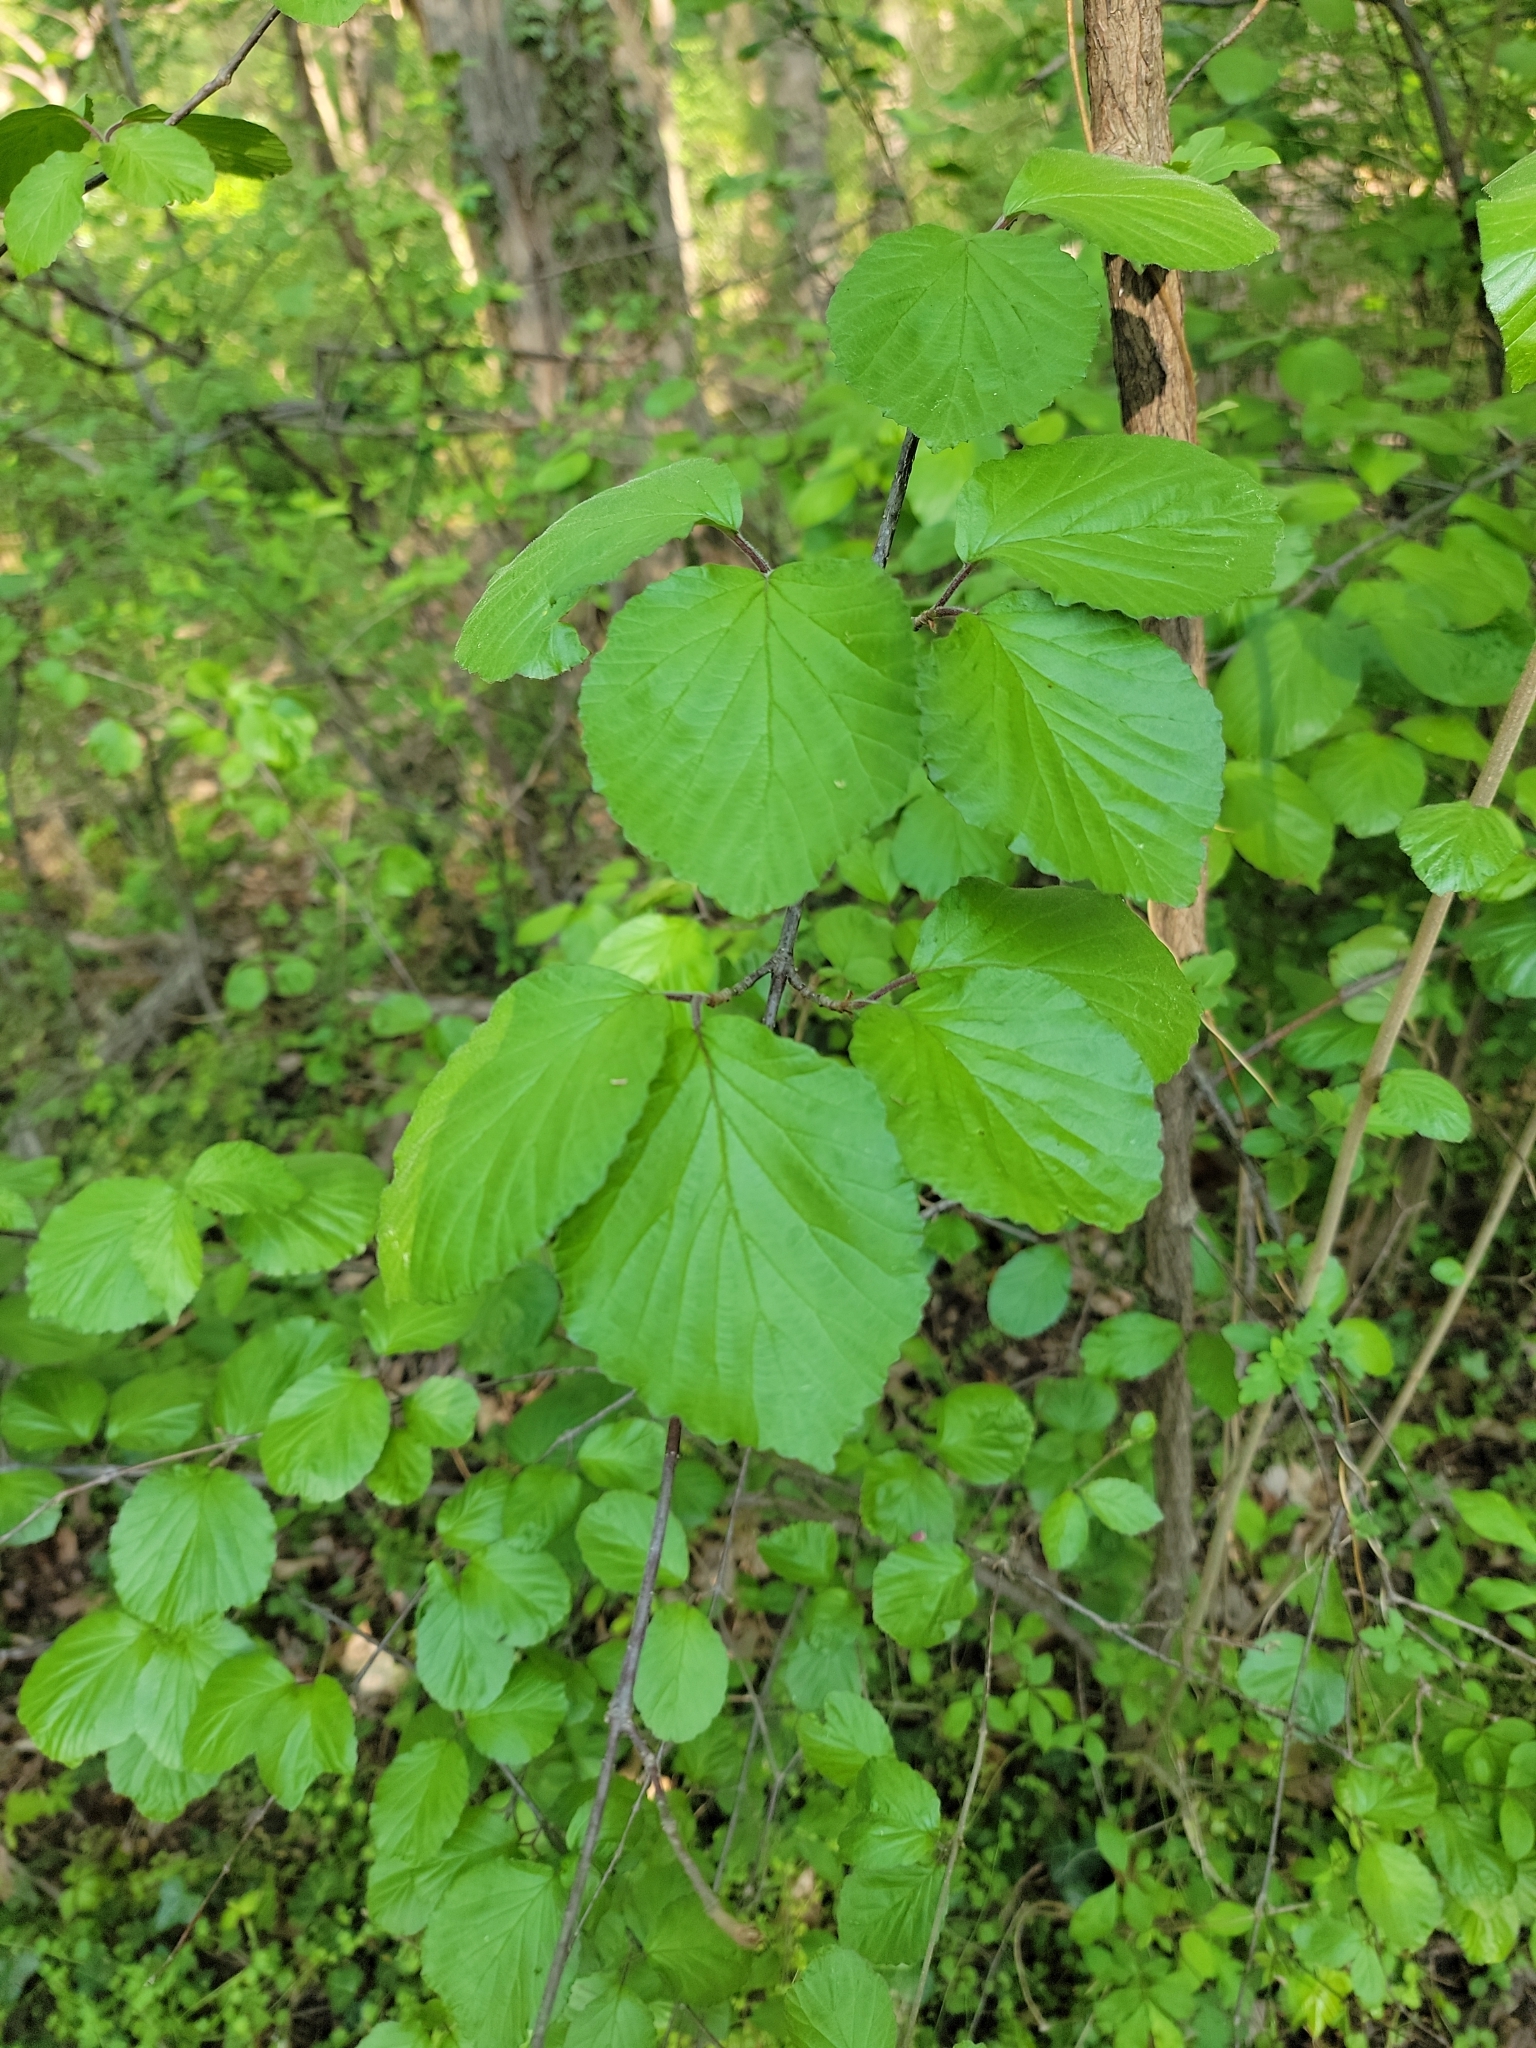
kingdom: Plantae
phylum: Tracheophyta
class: Magnoliopsida
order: Dipsacales
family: Viburnaceae
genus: Viburnum
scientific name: Viburnum dilatatum
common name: Linden arrowwood
